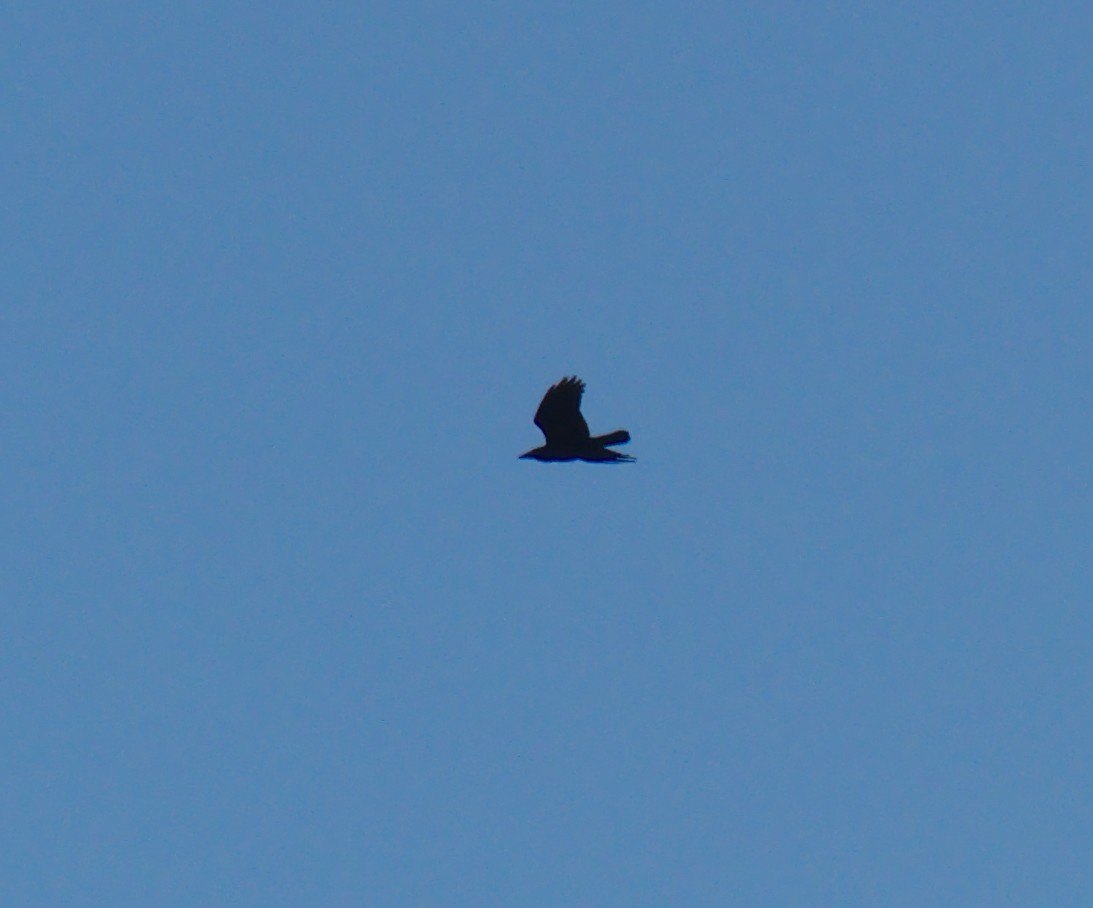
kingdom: Animalia
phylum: Chordata
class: Aves
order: Passeriformes
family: Corvidae
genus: Corvus
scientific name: Corvus corax
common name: Common raven
